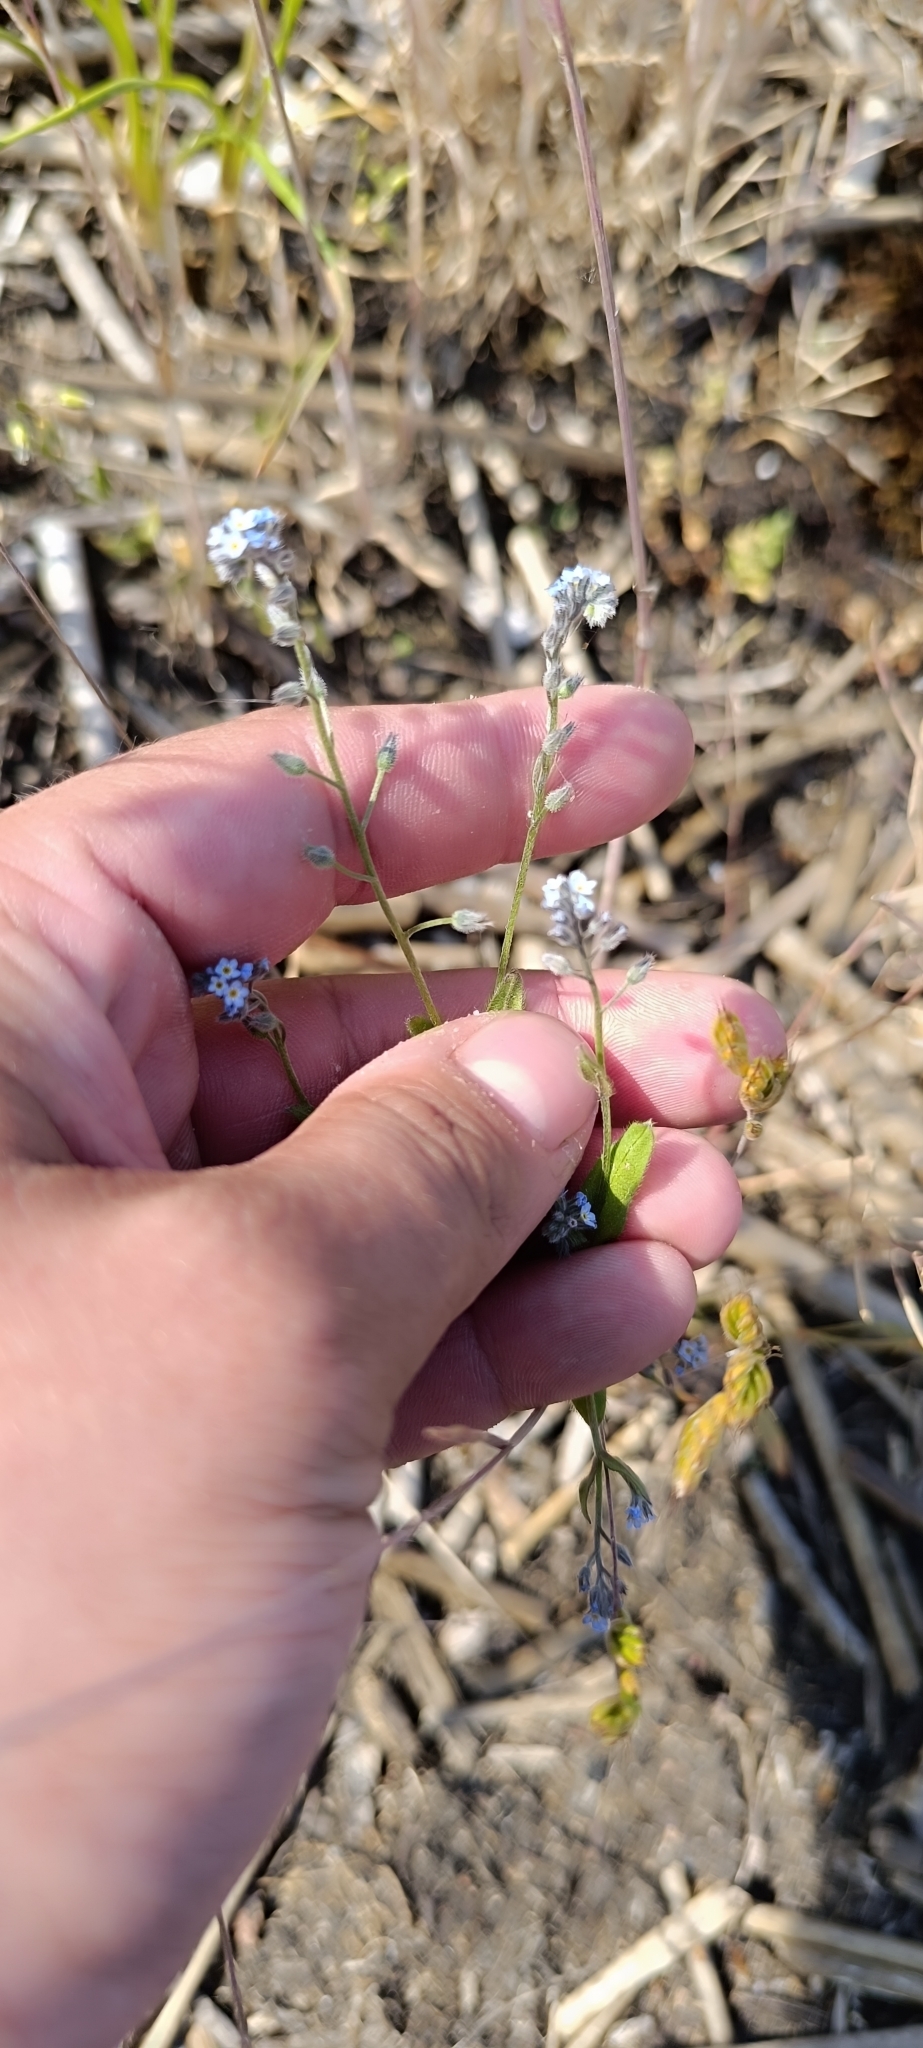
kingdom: Plantae
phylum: Tracheophyta
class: Magnoliopsida
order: Boraginales
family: Boraginaceae
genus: Myosotis
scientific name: Myosotis arvensis
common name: Field forget-me-not
